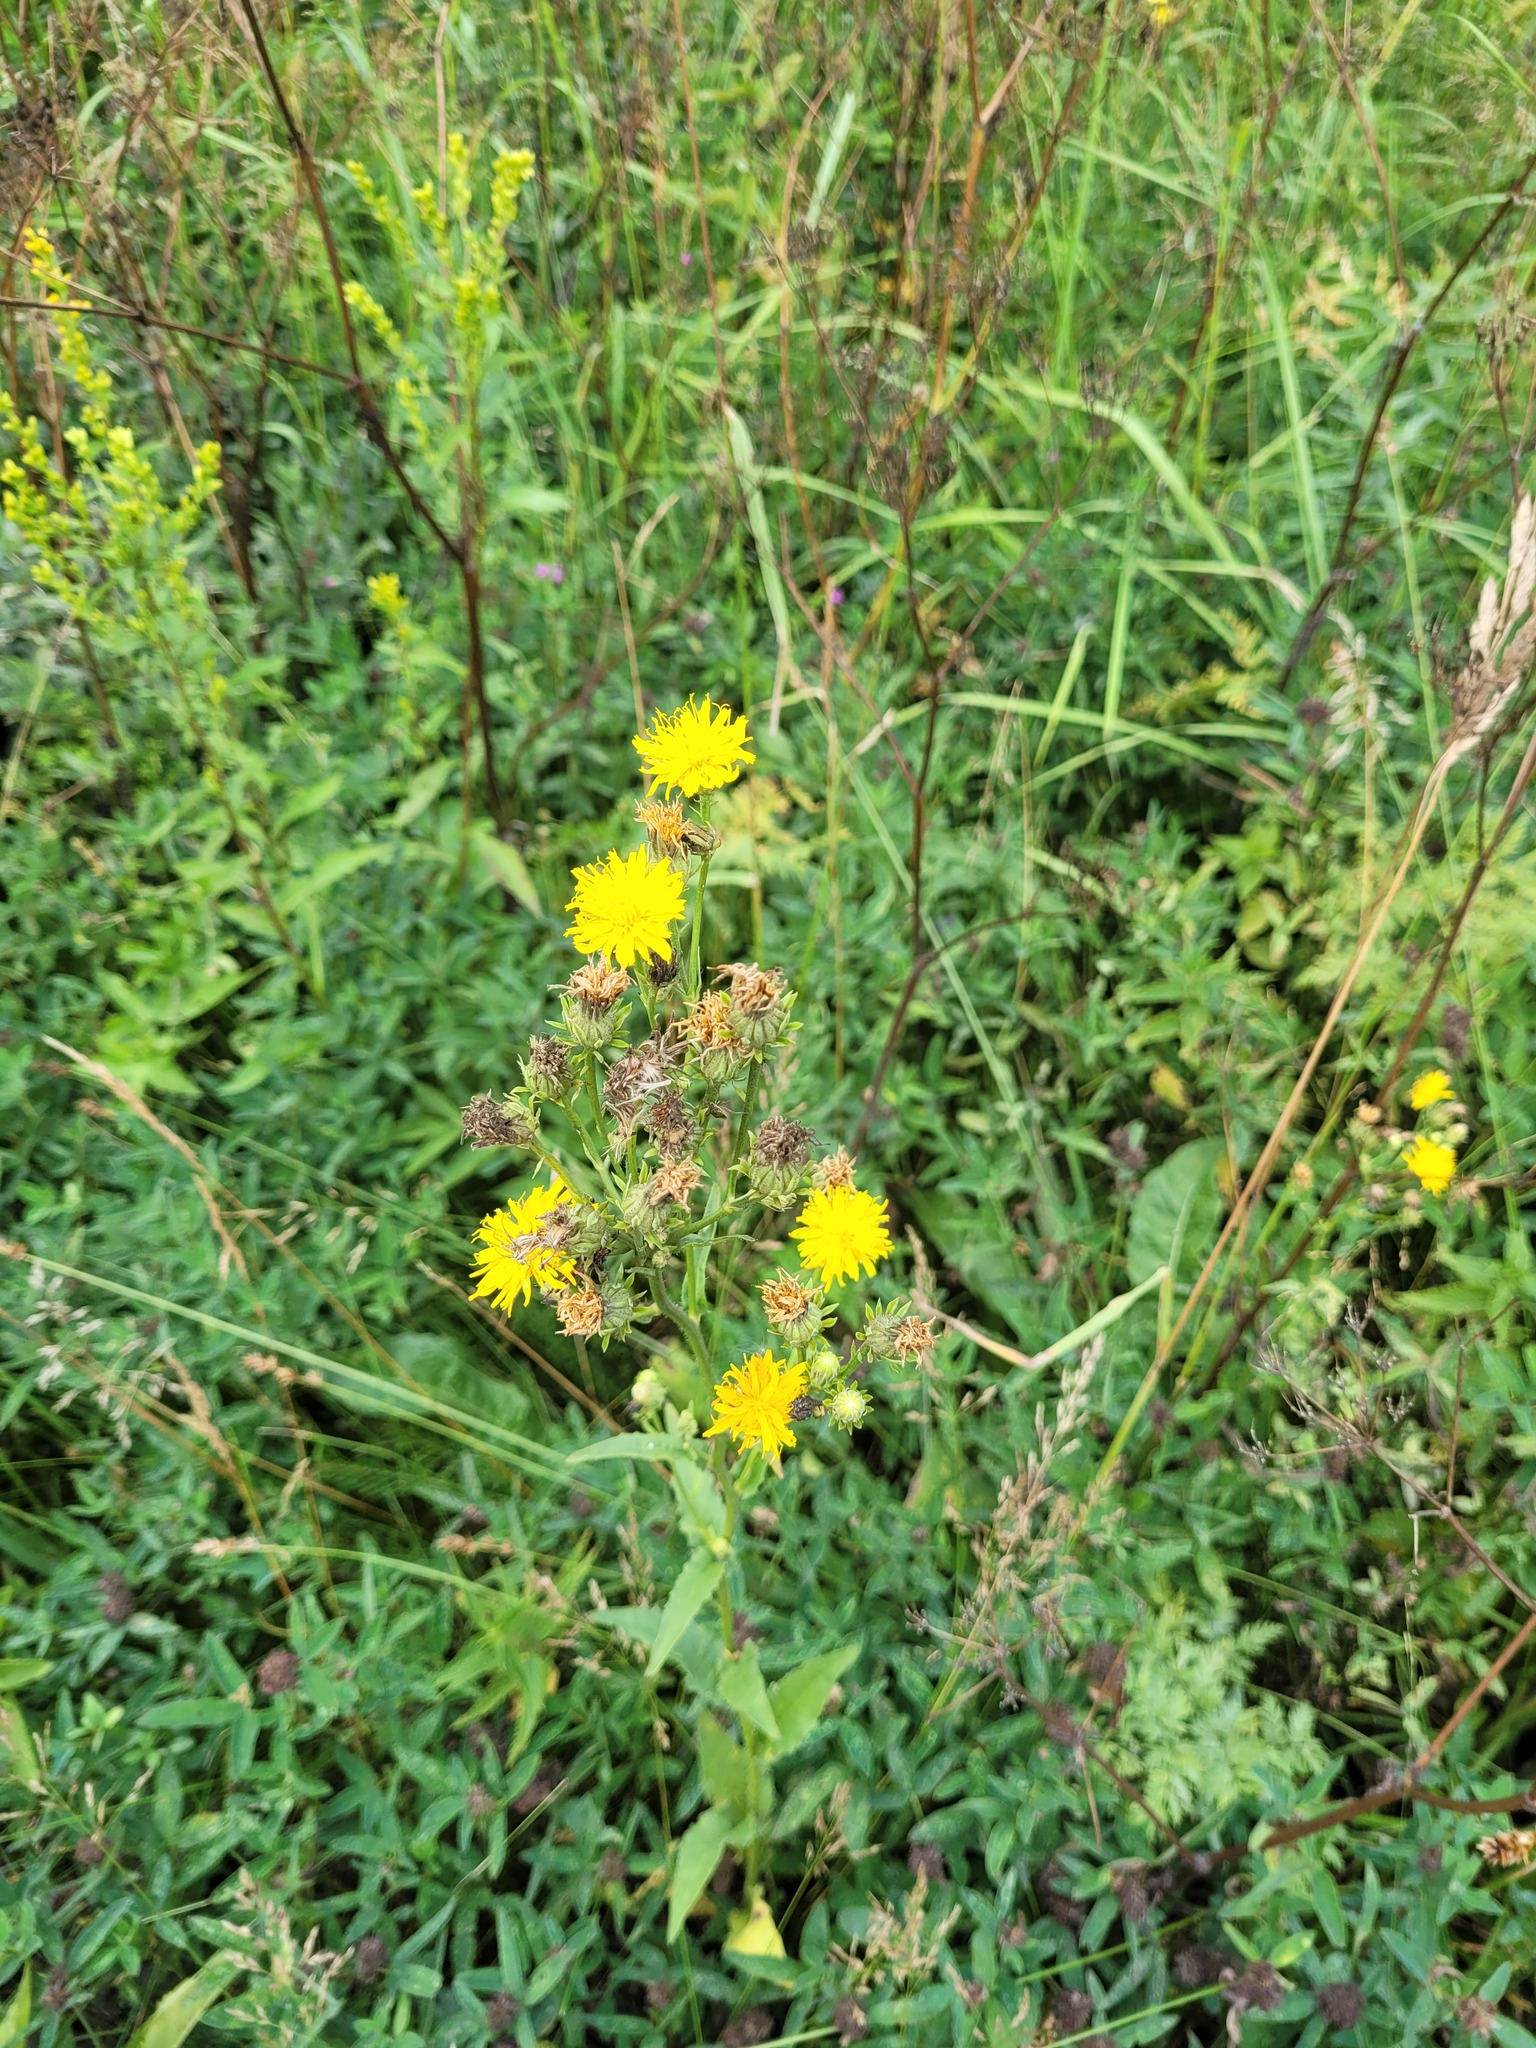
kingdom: Plantae
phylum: Tracheophyta
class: Magnoliopsida
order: Asterales
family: Asteraceae
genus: Picris
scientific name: Picris hieracioides
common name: Hawkweed oxtongue
